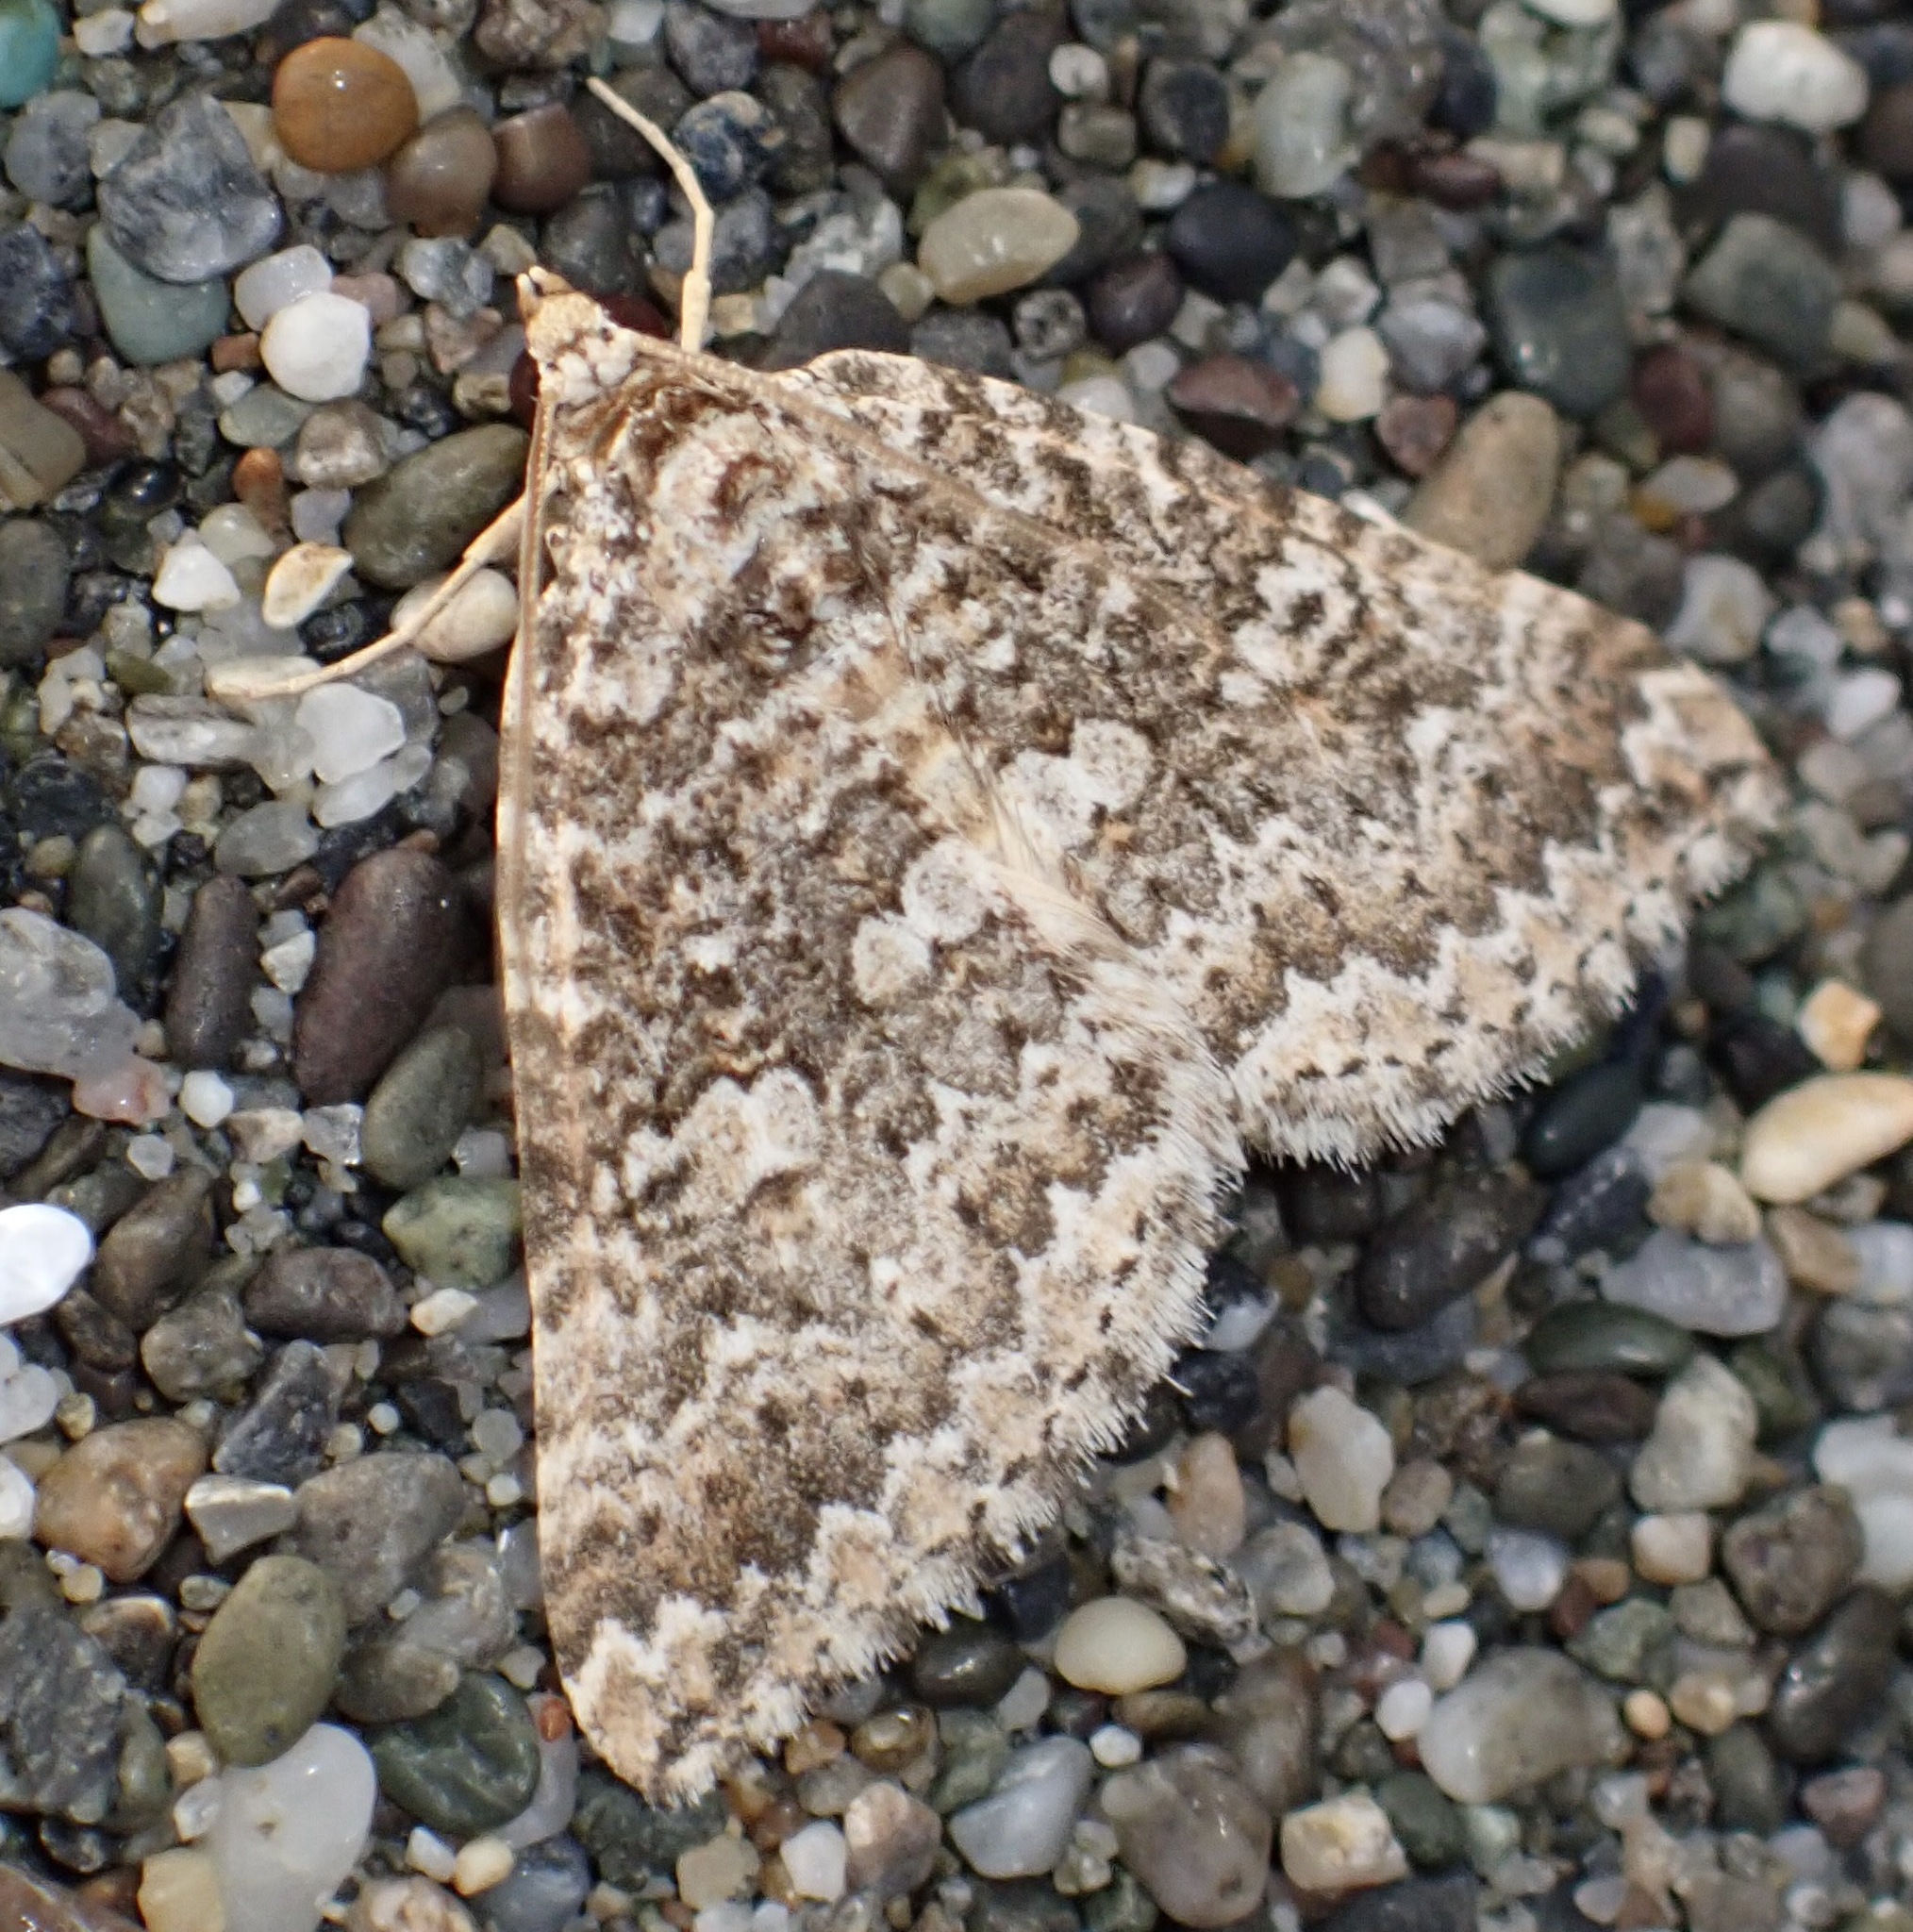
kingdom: Animalia
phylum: Arthropoda
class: Insecta
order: Lepidoptera
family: Geometridae
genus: Euphyia
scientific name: Euphyia implicata
